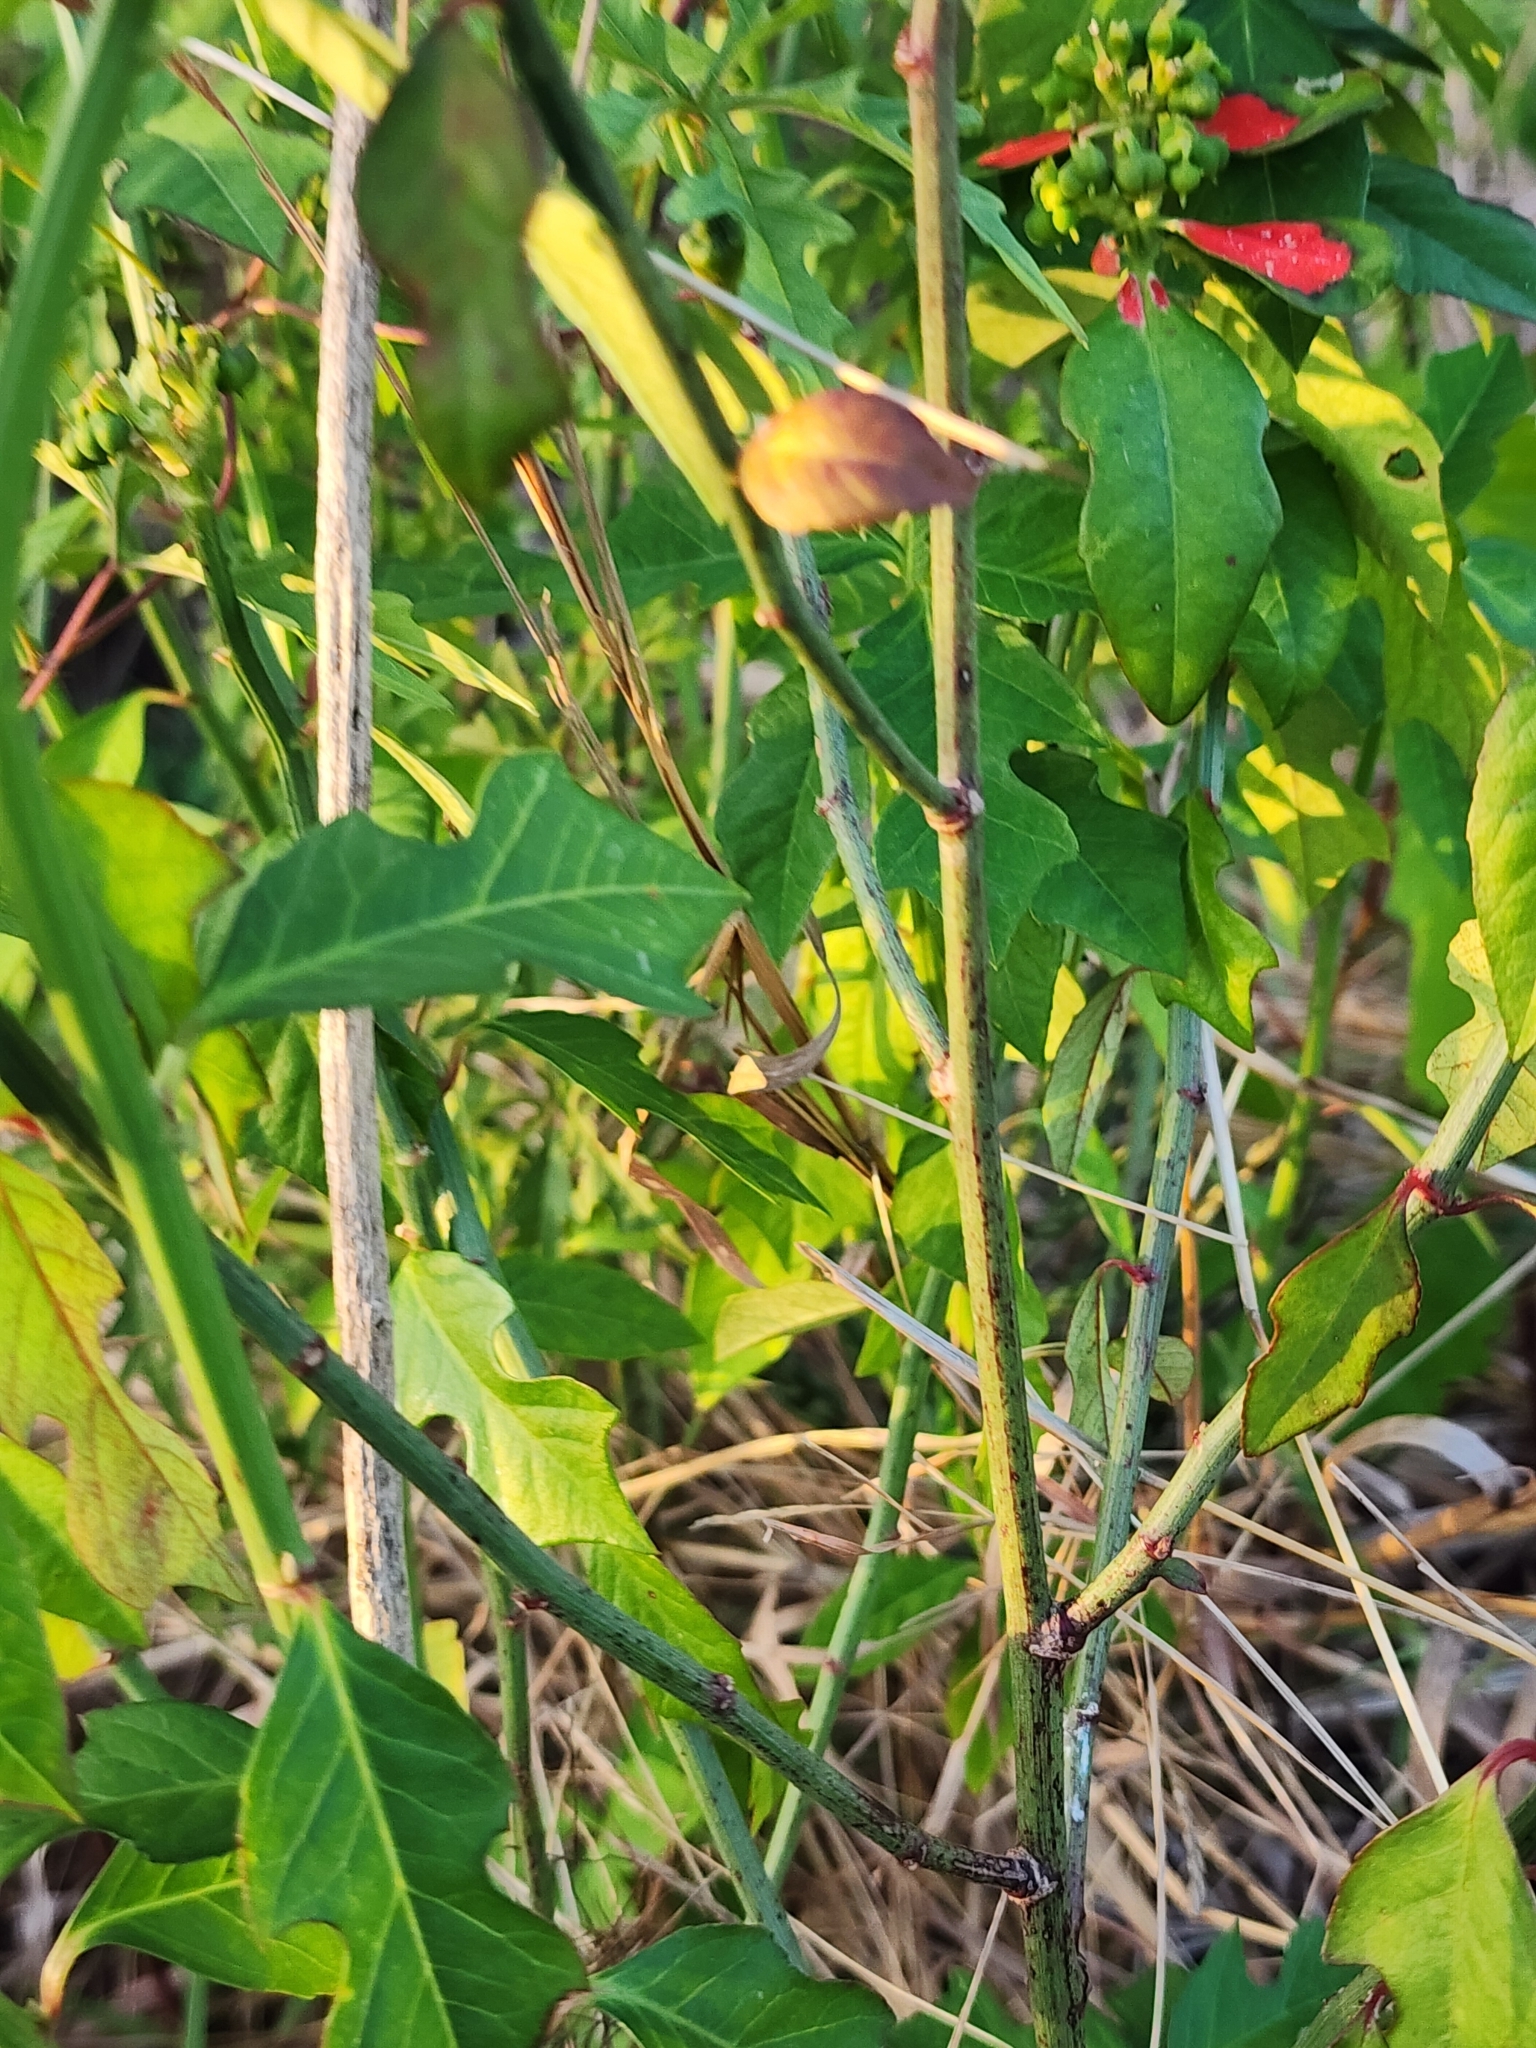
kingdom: Plantae
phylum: Tracheophyta
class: Magnoliopsida
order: Malpighiales
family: Euphorbiaceae
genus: Euphorbia
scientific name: Euphorbia heterophylla
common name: Mexican fireplant
